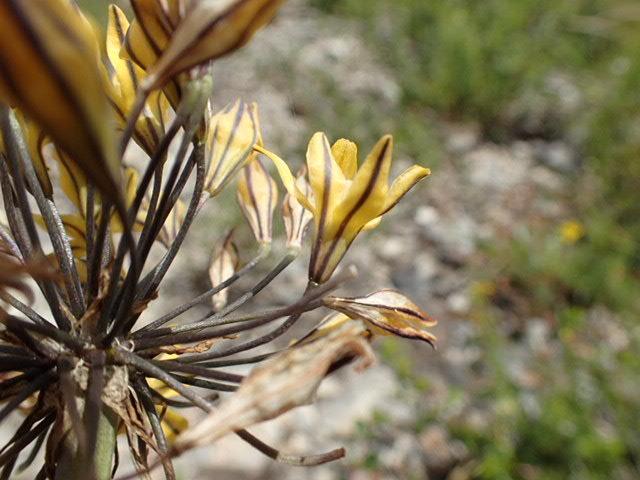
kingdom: Plantae
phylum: Tracheophyta
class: Liliopsida
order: Asparagales
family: Asparagaceae
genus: Triteleia
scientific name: Triteleia lugens
